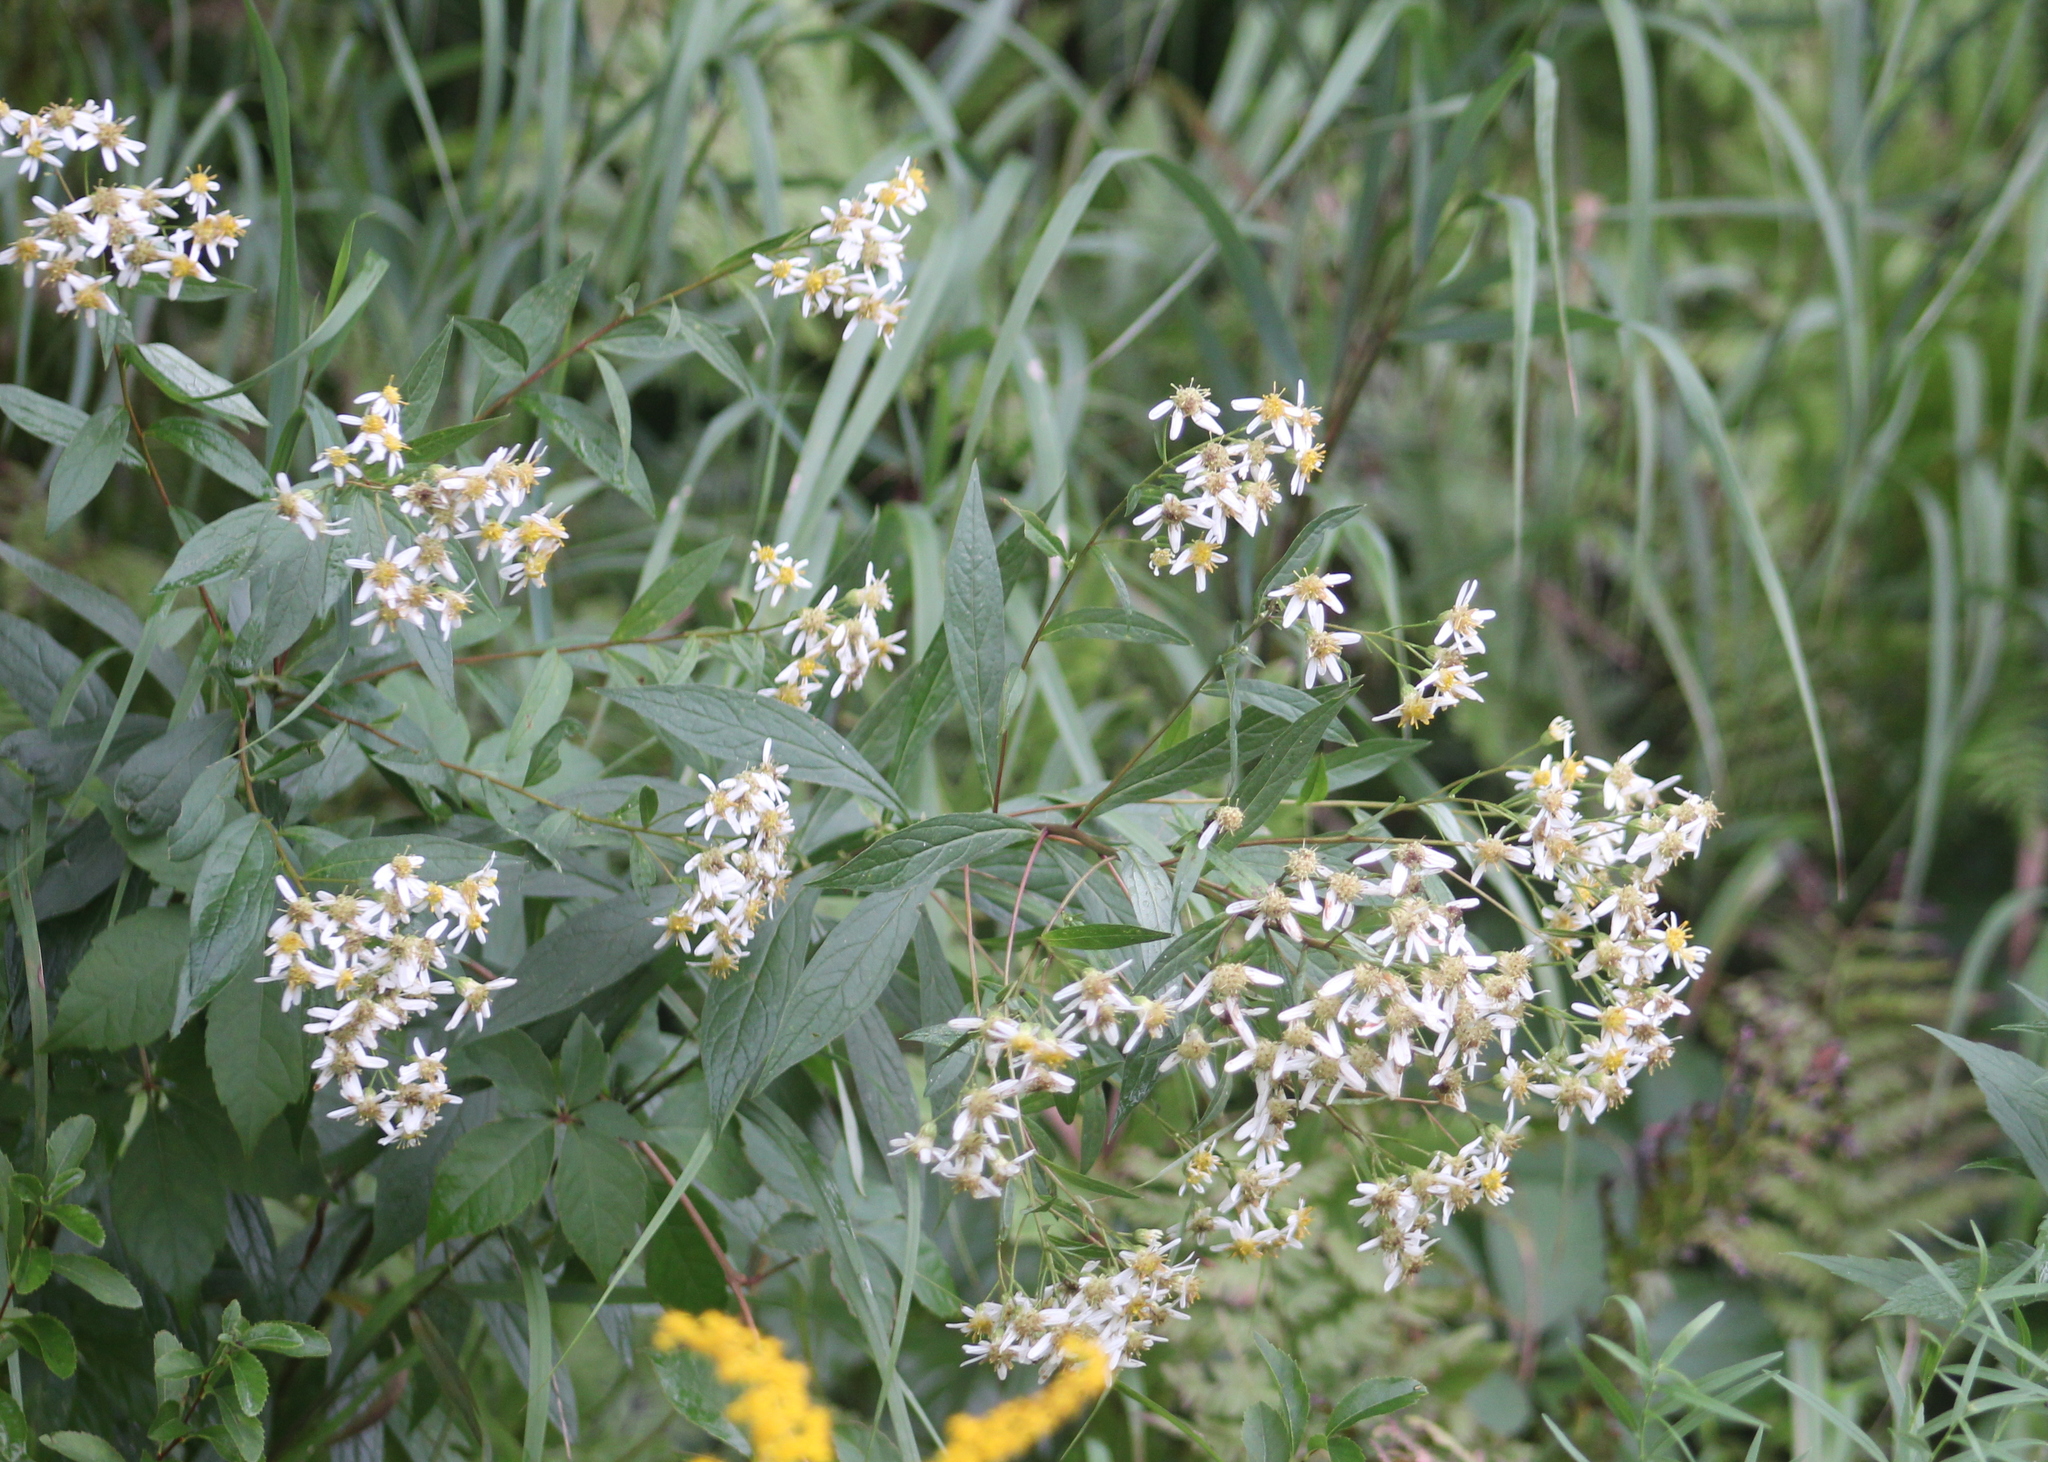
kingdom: Plantae
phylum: Tracheophyta
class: Magnoliopsida
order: Asterales
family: Asteraceae
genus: Doellingeria
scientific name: Doellingeria umbellata
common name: Flat-top white aster
